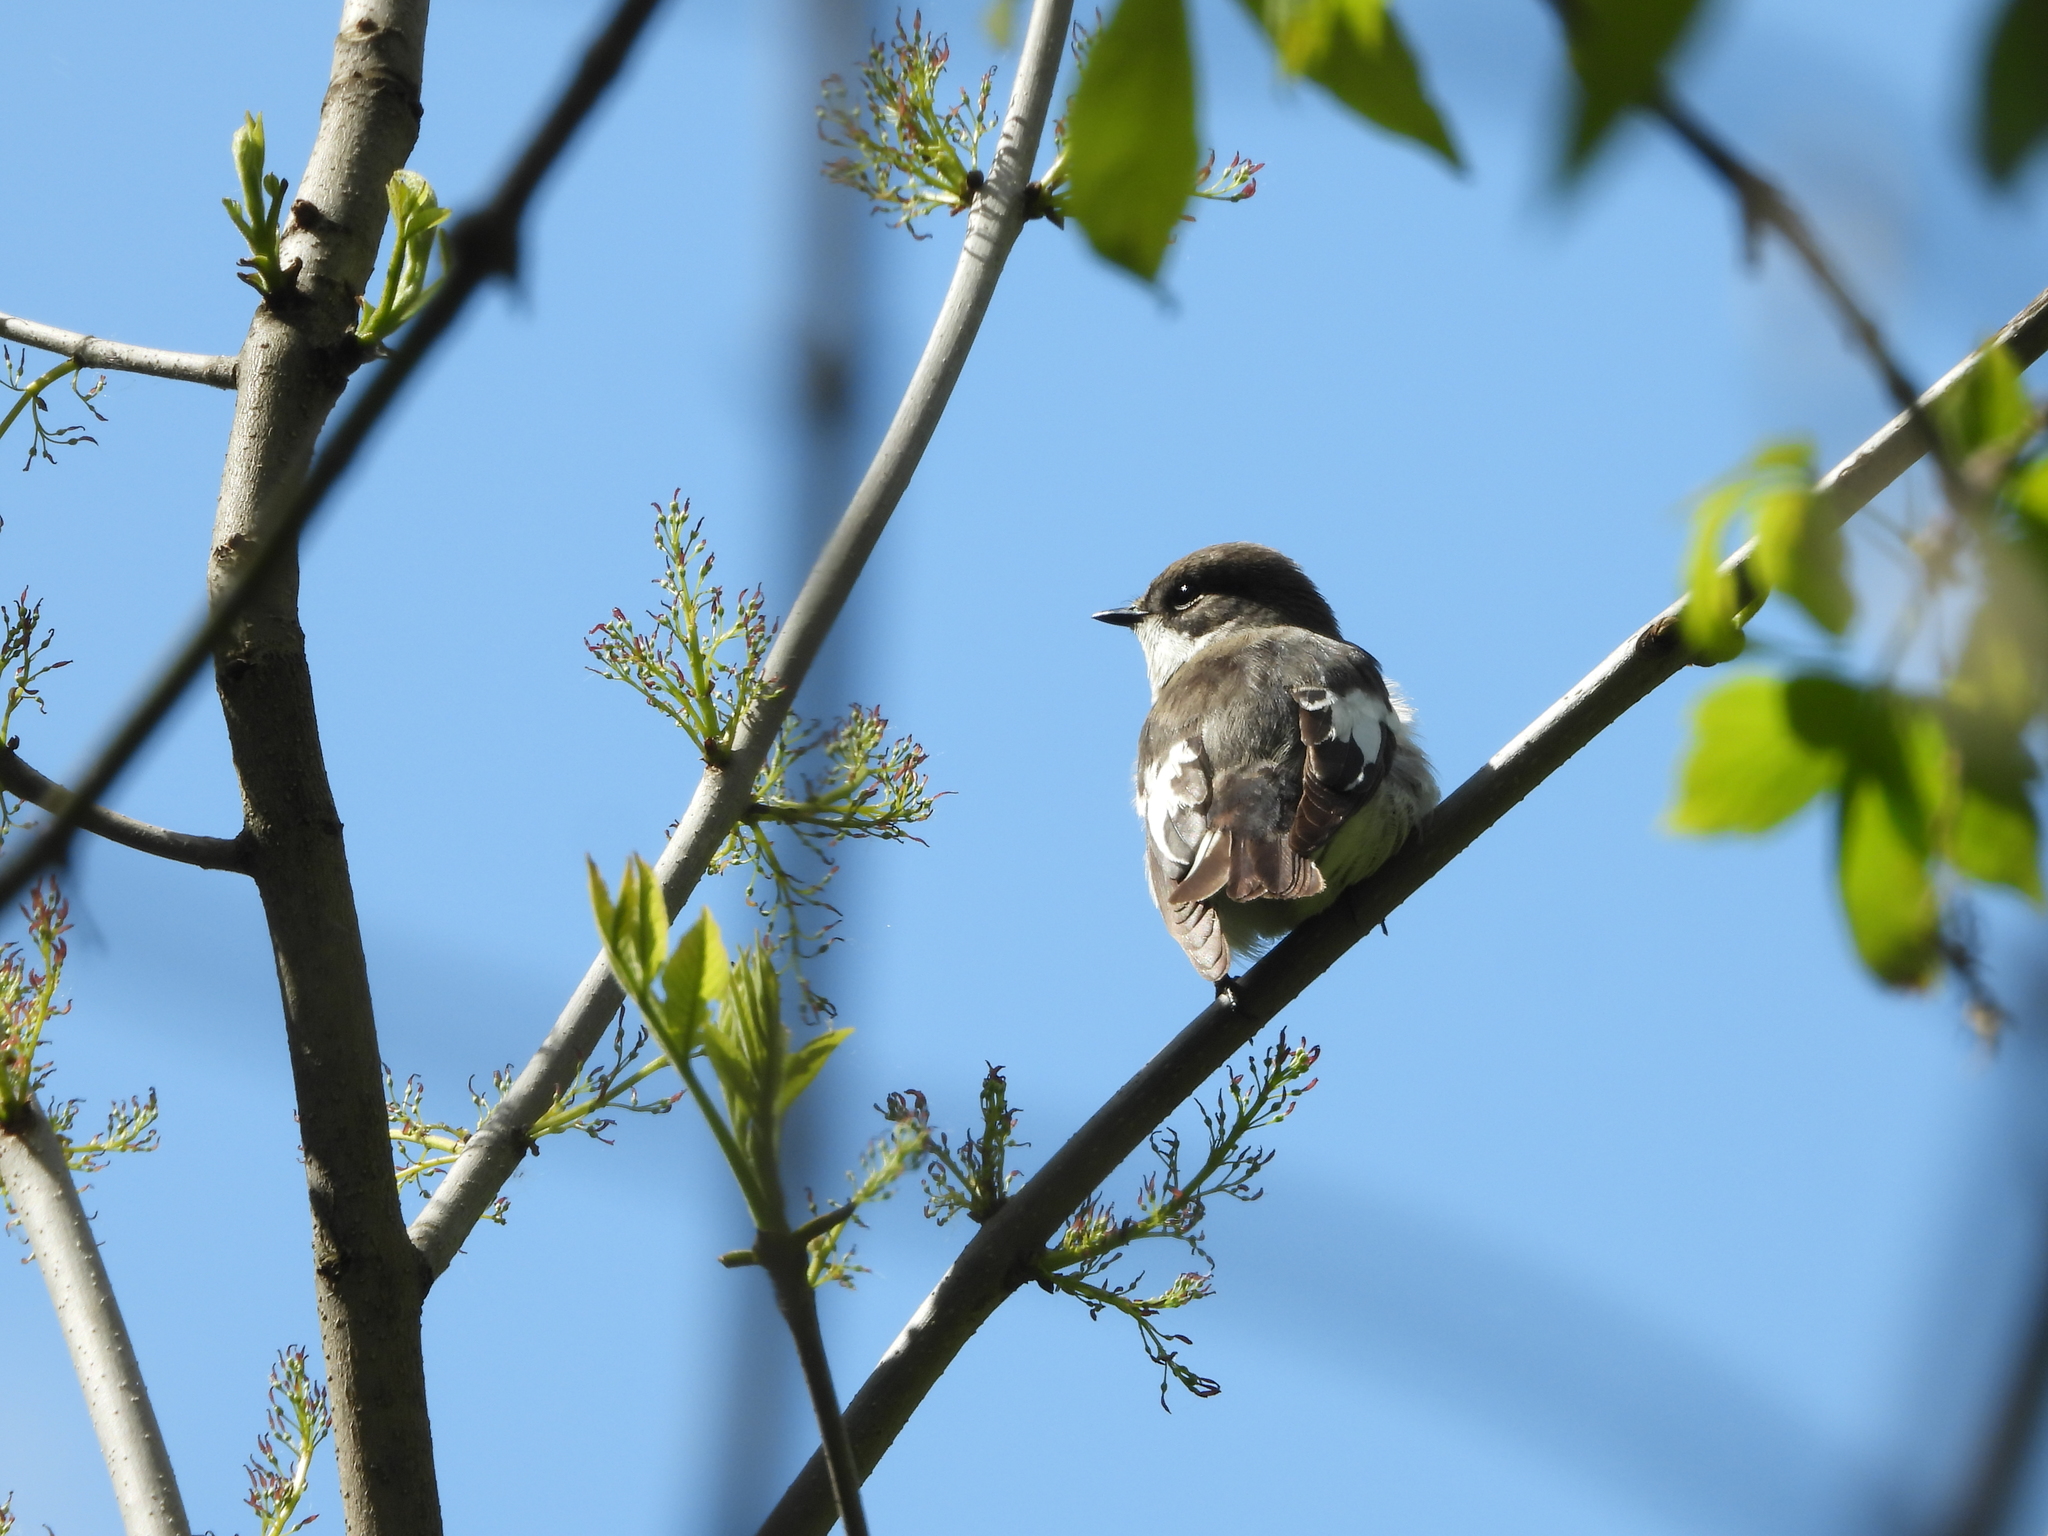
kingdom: Animalia
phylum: Chordata
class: Aves
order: Passeriformes
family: Muscicapidae
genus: Ficedula
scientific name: Ficedula hypoleuca
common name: European pied flycatcher
